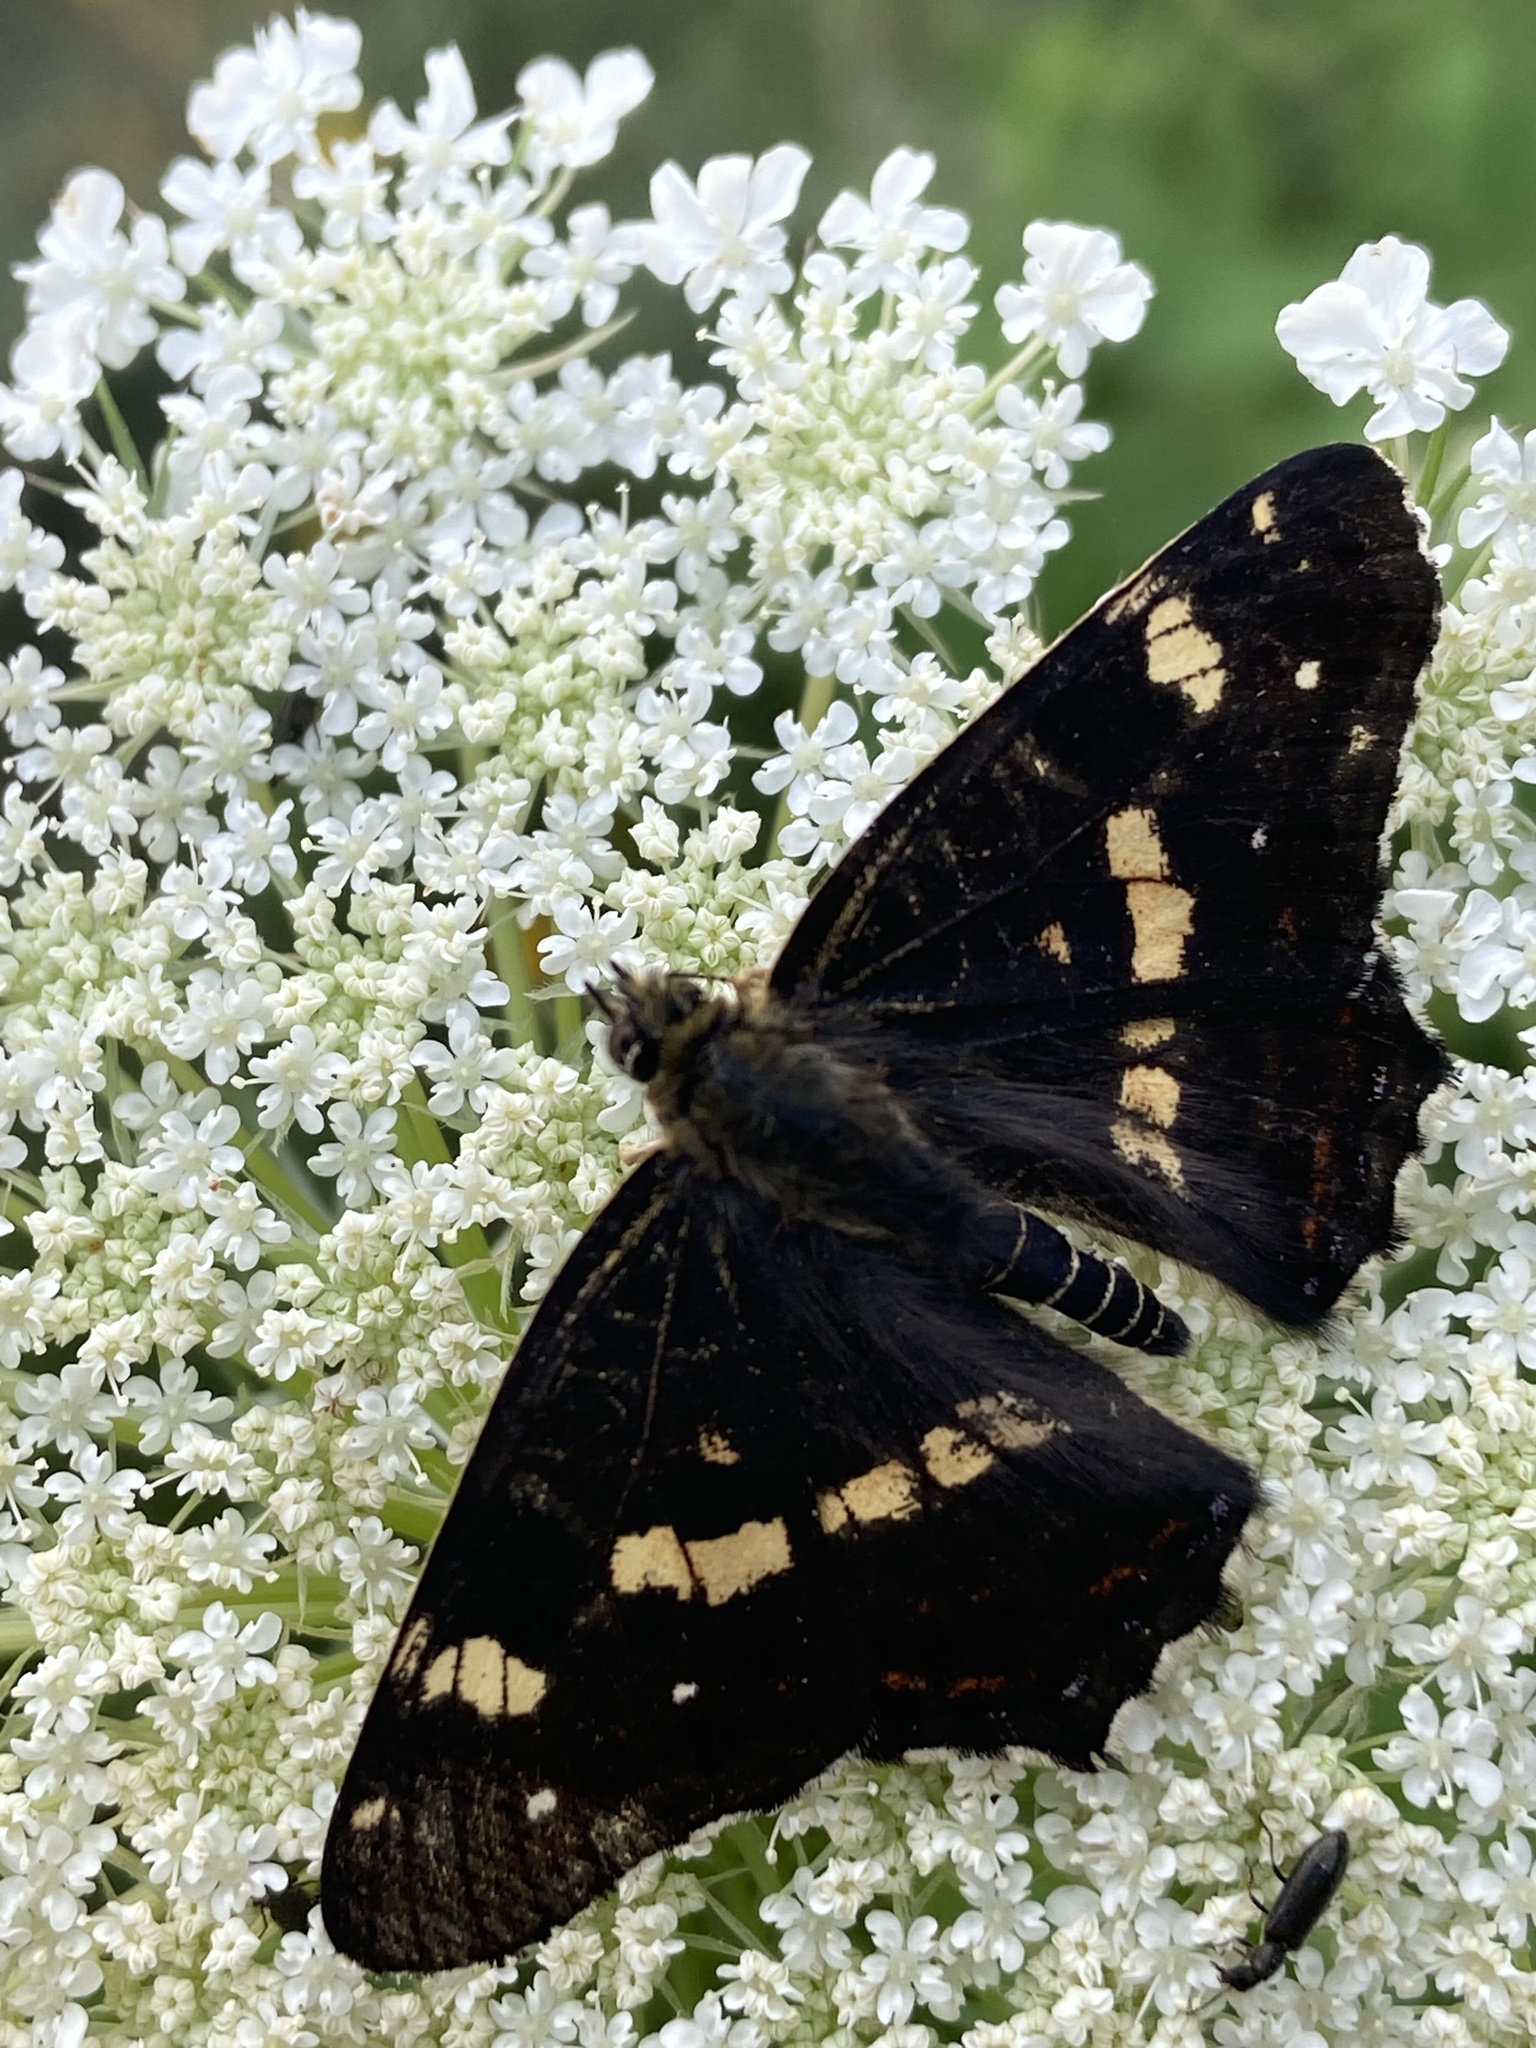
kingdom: Animalia
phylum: Arthropoda
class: Insecta
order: Lepidoptera
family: Nymphalidae
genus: Araschnia
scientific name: Araschnia levana
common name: Map butterfly
